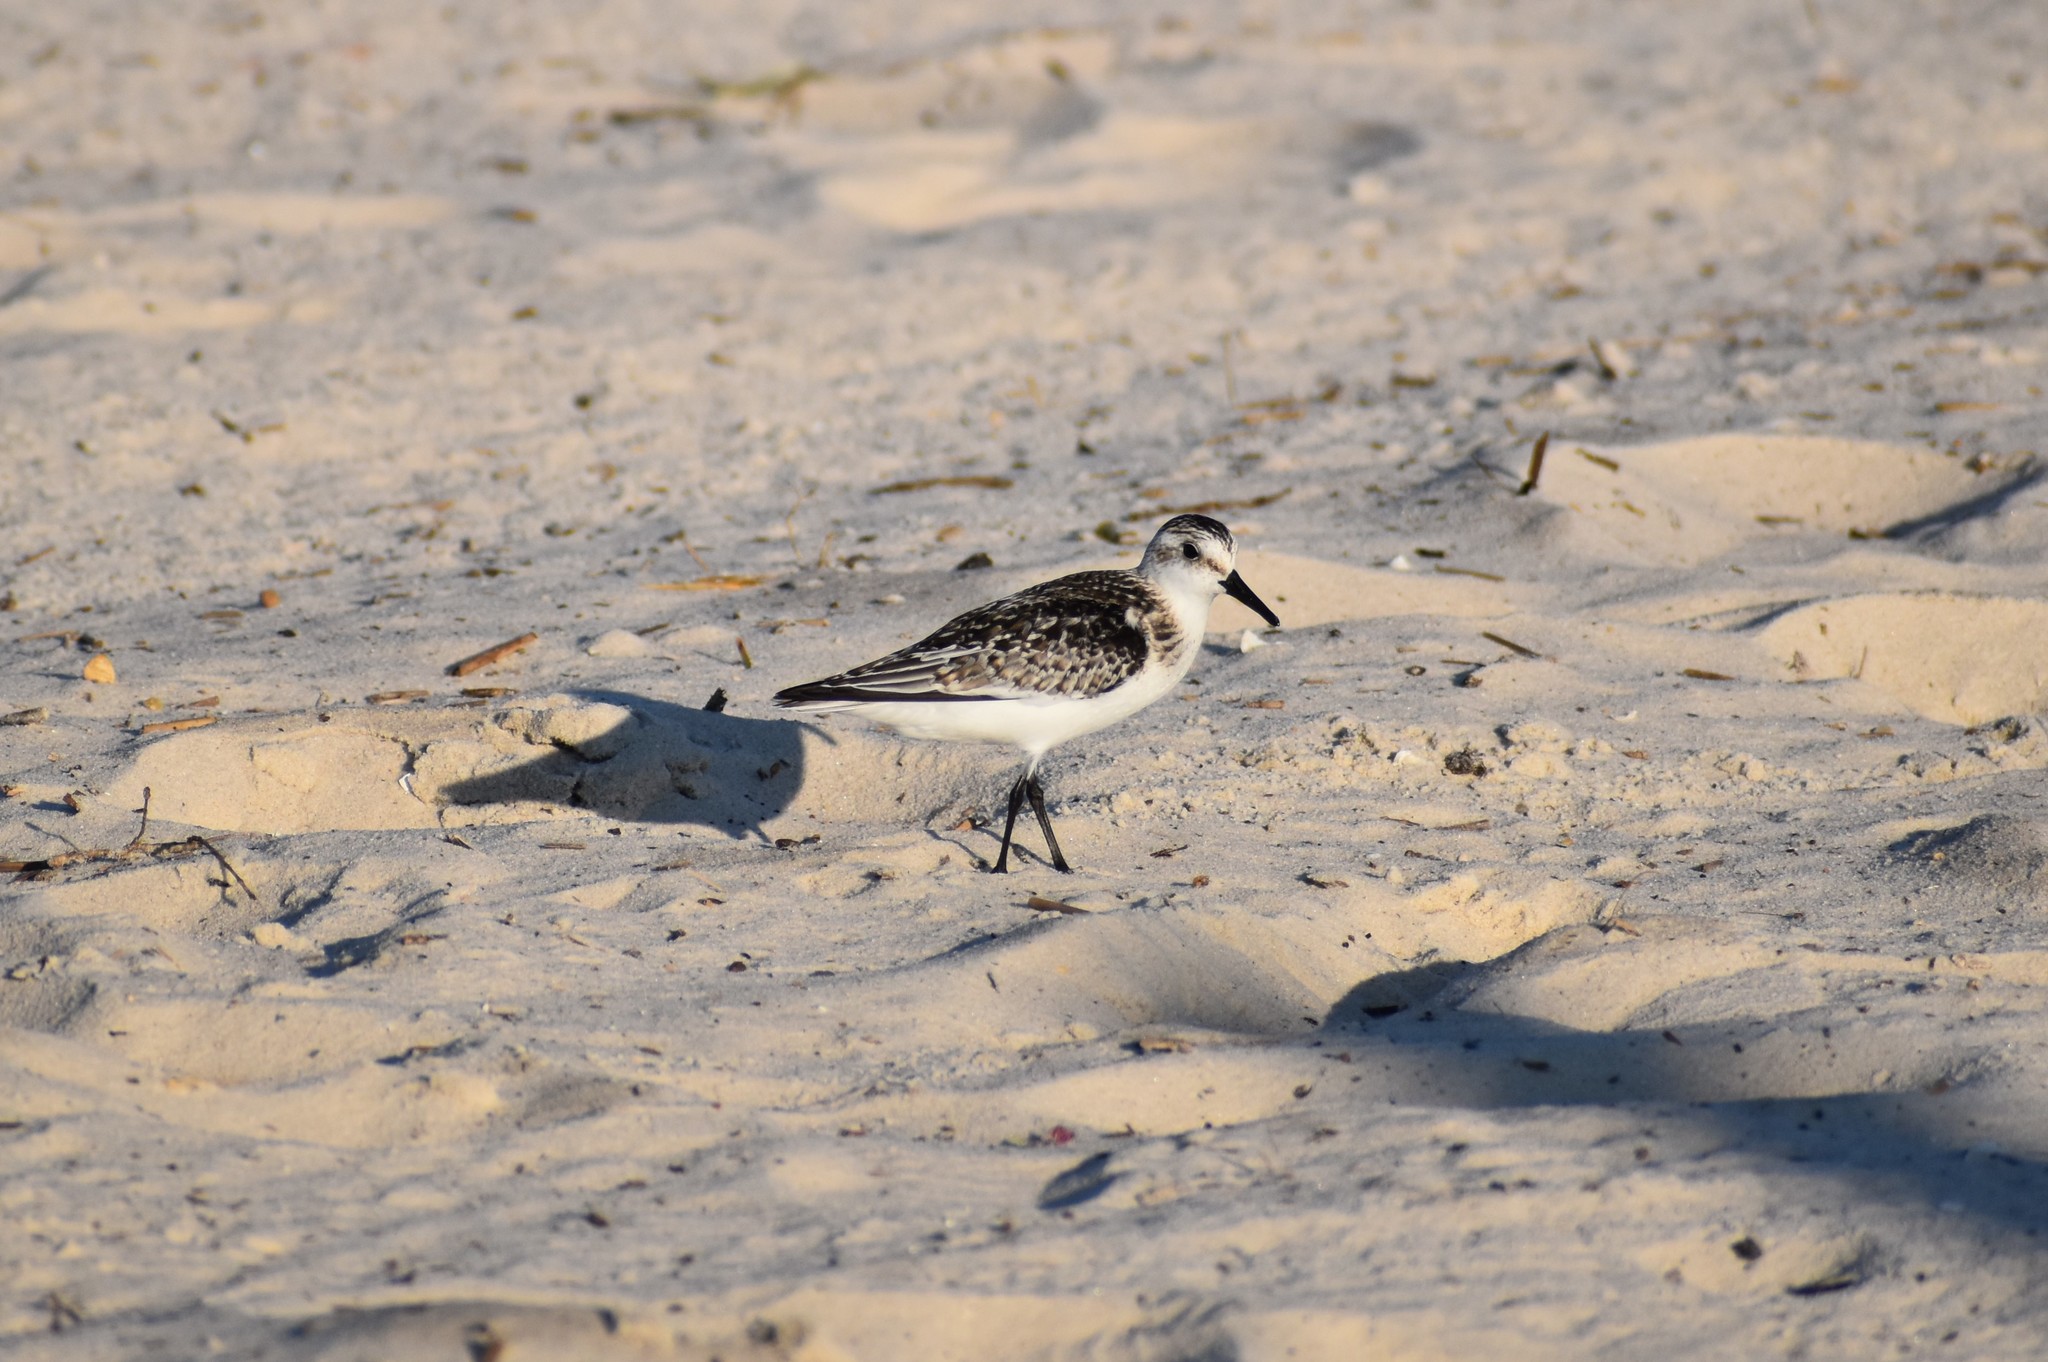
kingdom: Animalia
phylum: Chordata
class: Aves
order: Charadriiformes
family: Scolopacidae
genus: Calidris
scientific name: Calidris alba
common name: Sanderling
